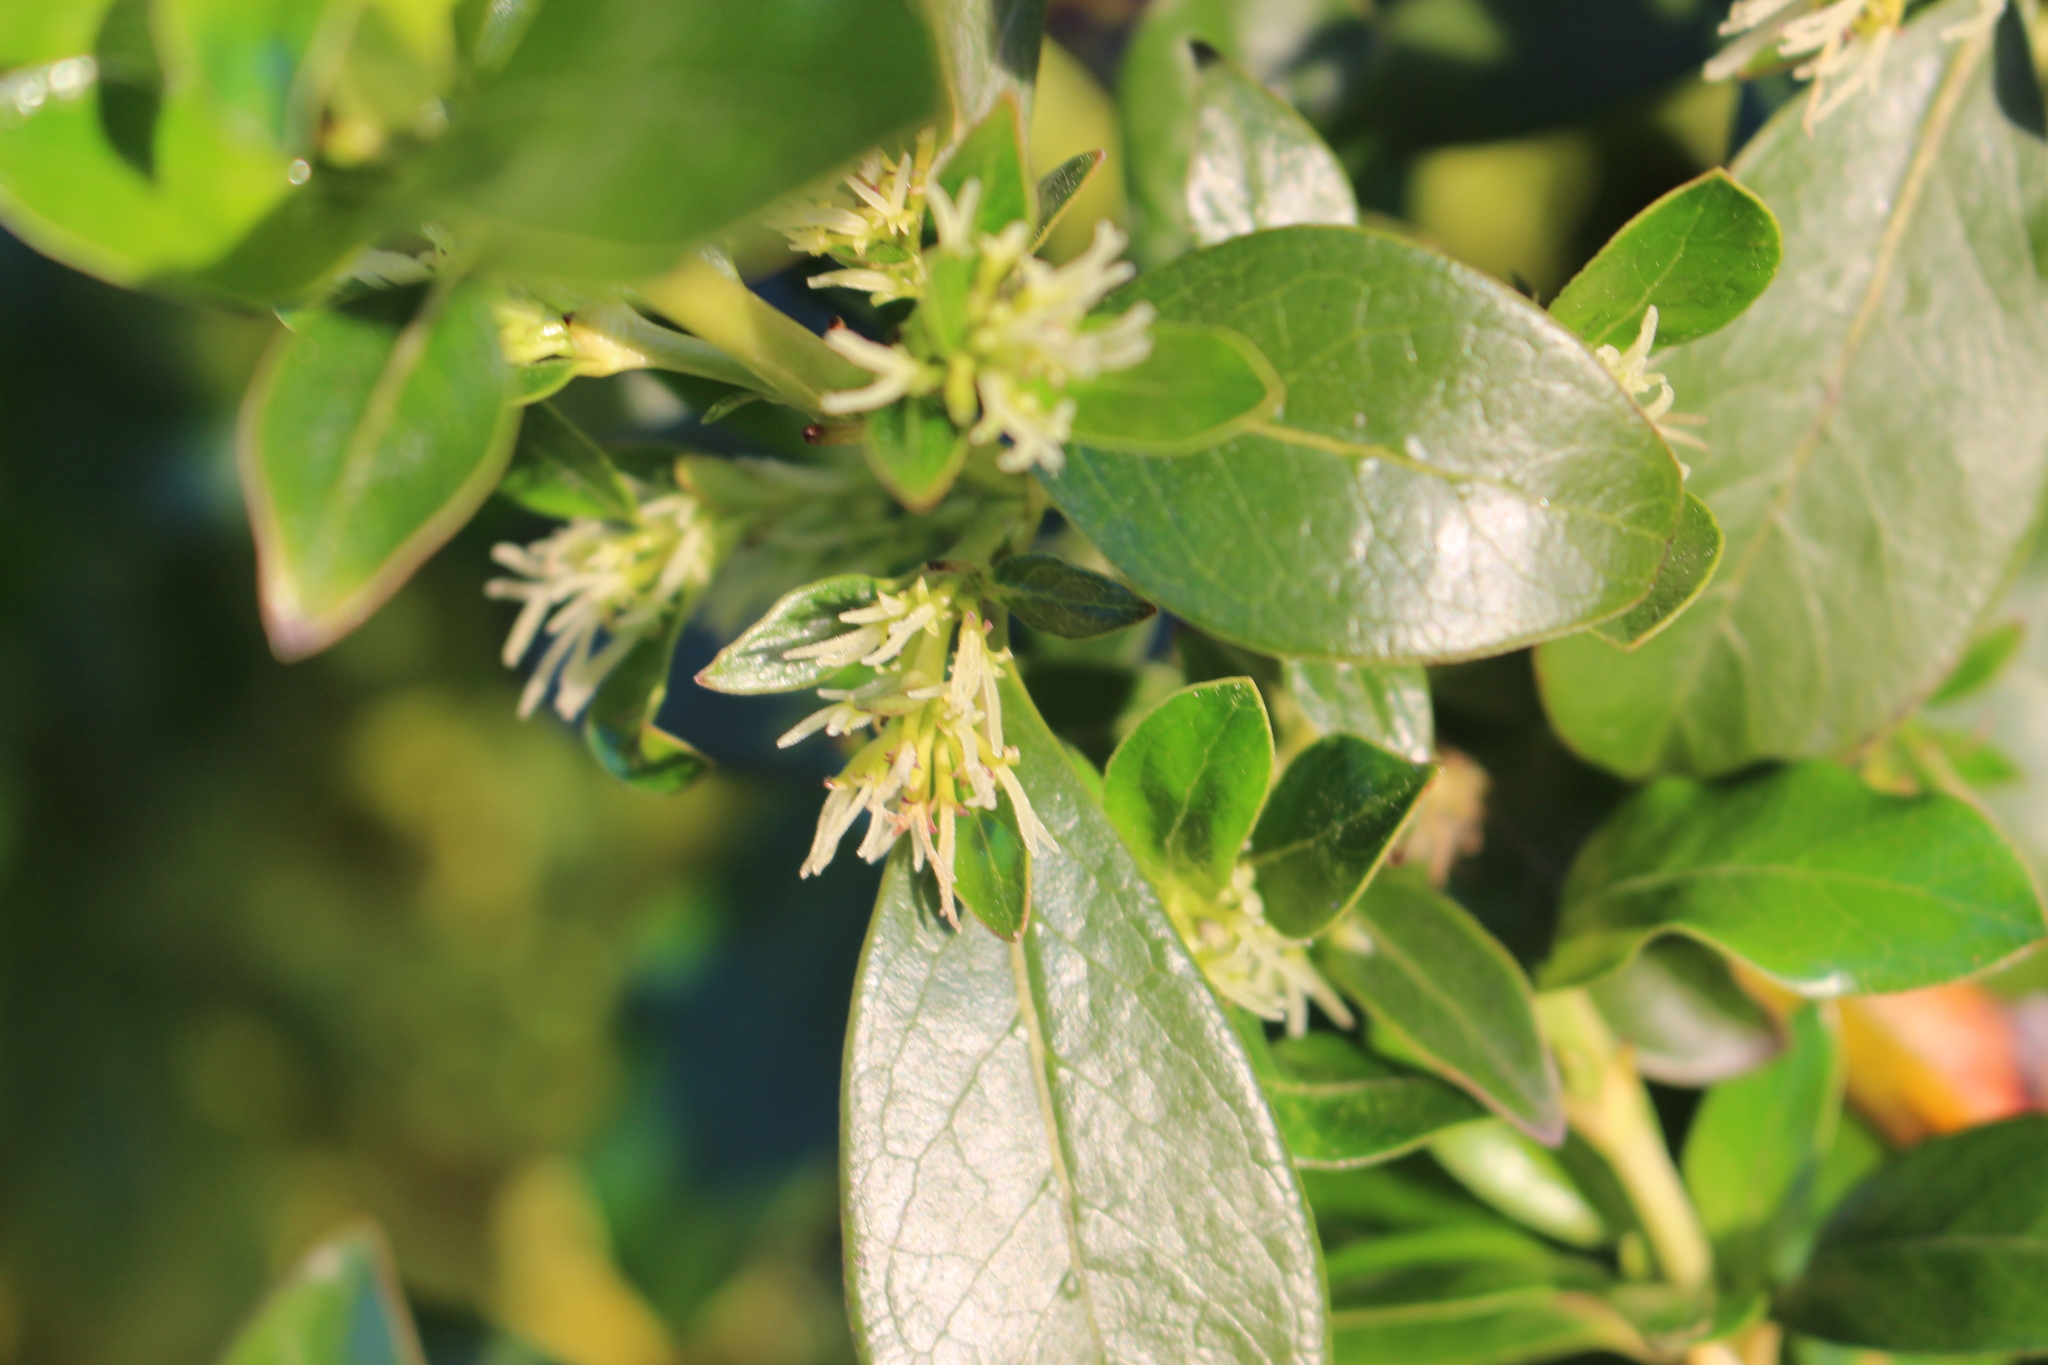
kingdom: Plantae
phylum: Tracheophyta
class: Magnoliopsida
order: Gentianales
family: Rubiaceae
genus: Coprosma
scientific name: Coprosma robusta
